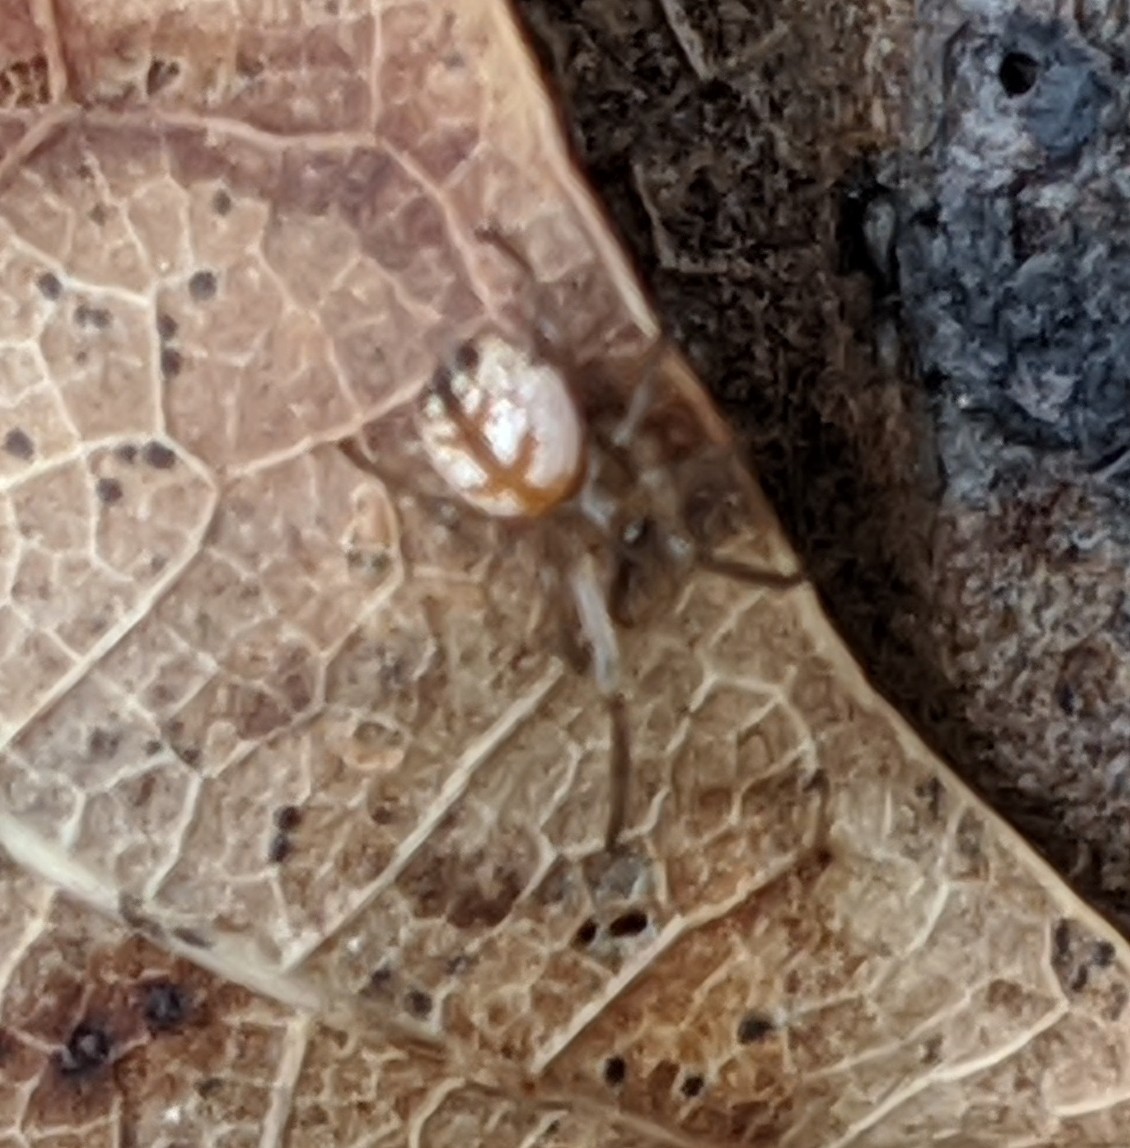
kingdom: Animalia
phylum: Arthropoda
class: Arachnida
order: Araneae
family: Tetragnathidae
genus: Leucauge
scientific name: Leucauge venusta
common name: Longjawed orb weavers
